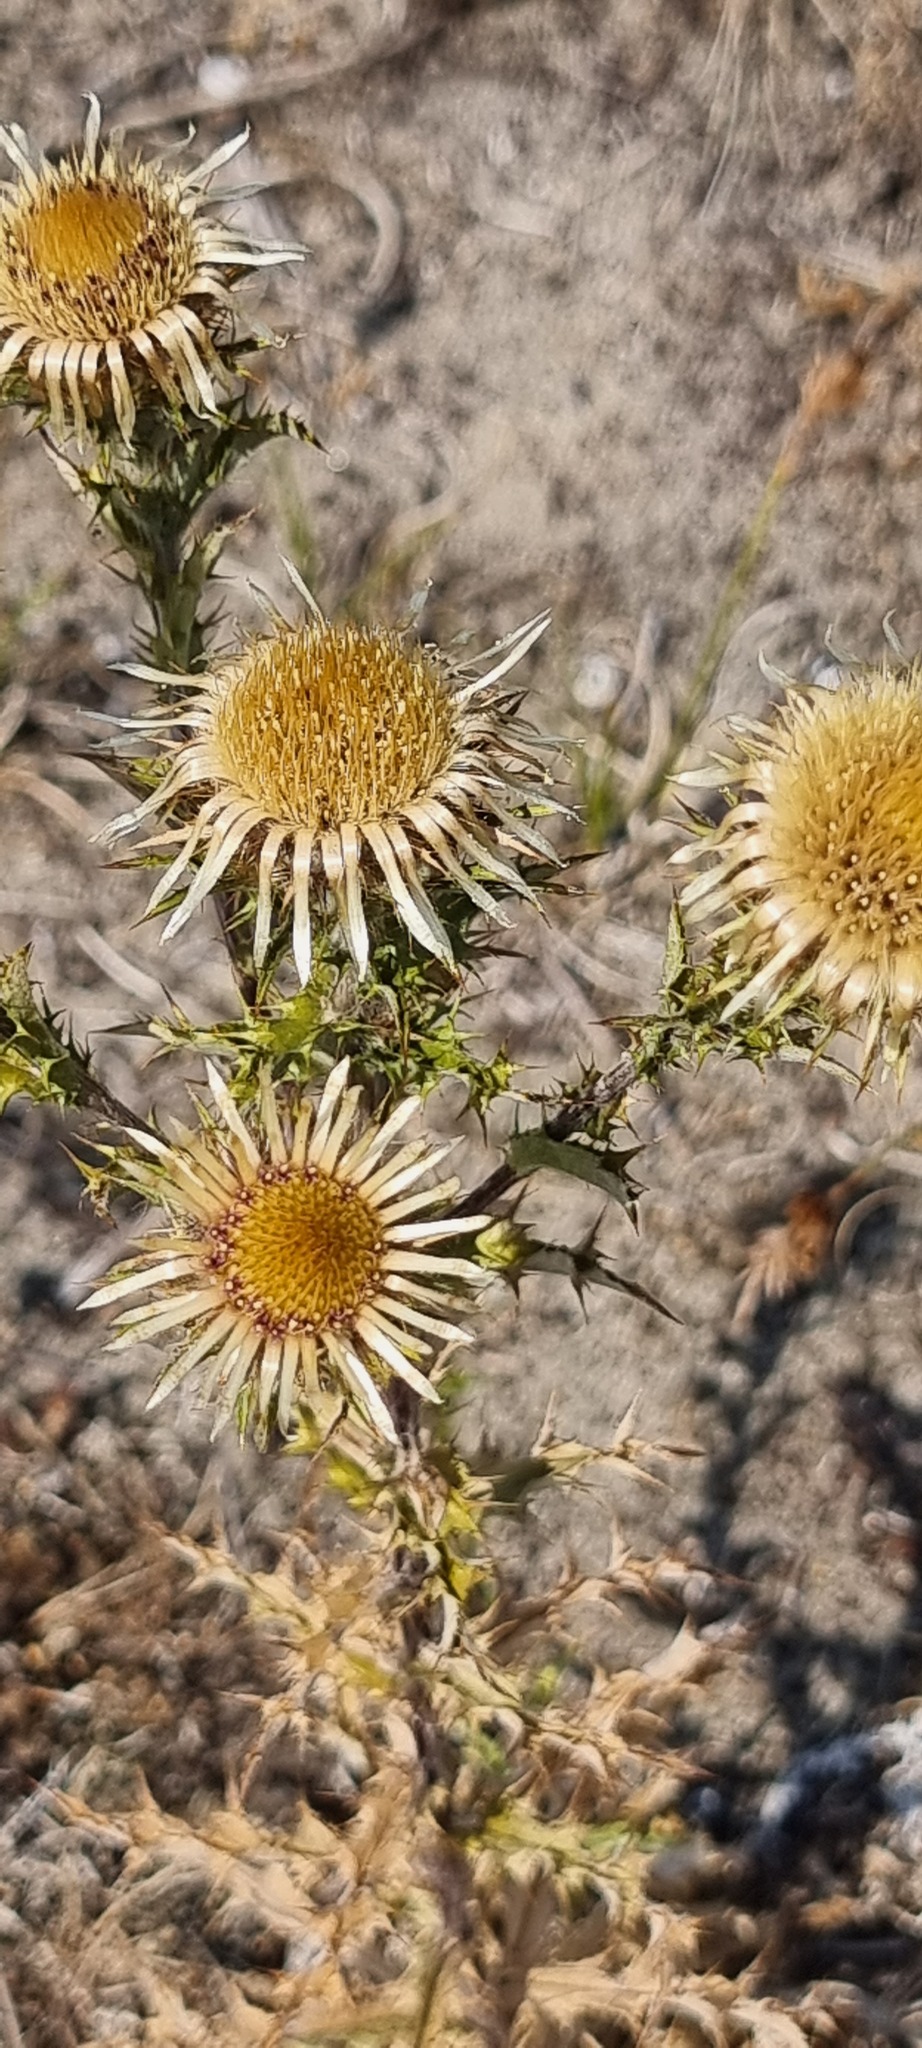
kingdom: Plantae
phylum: Tracheophyta
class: Magnoliopsida
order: Asterales
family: Asteraceae
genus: Carlina
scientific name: Carlina vulgaris
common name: Carline thistle
